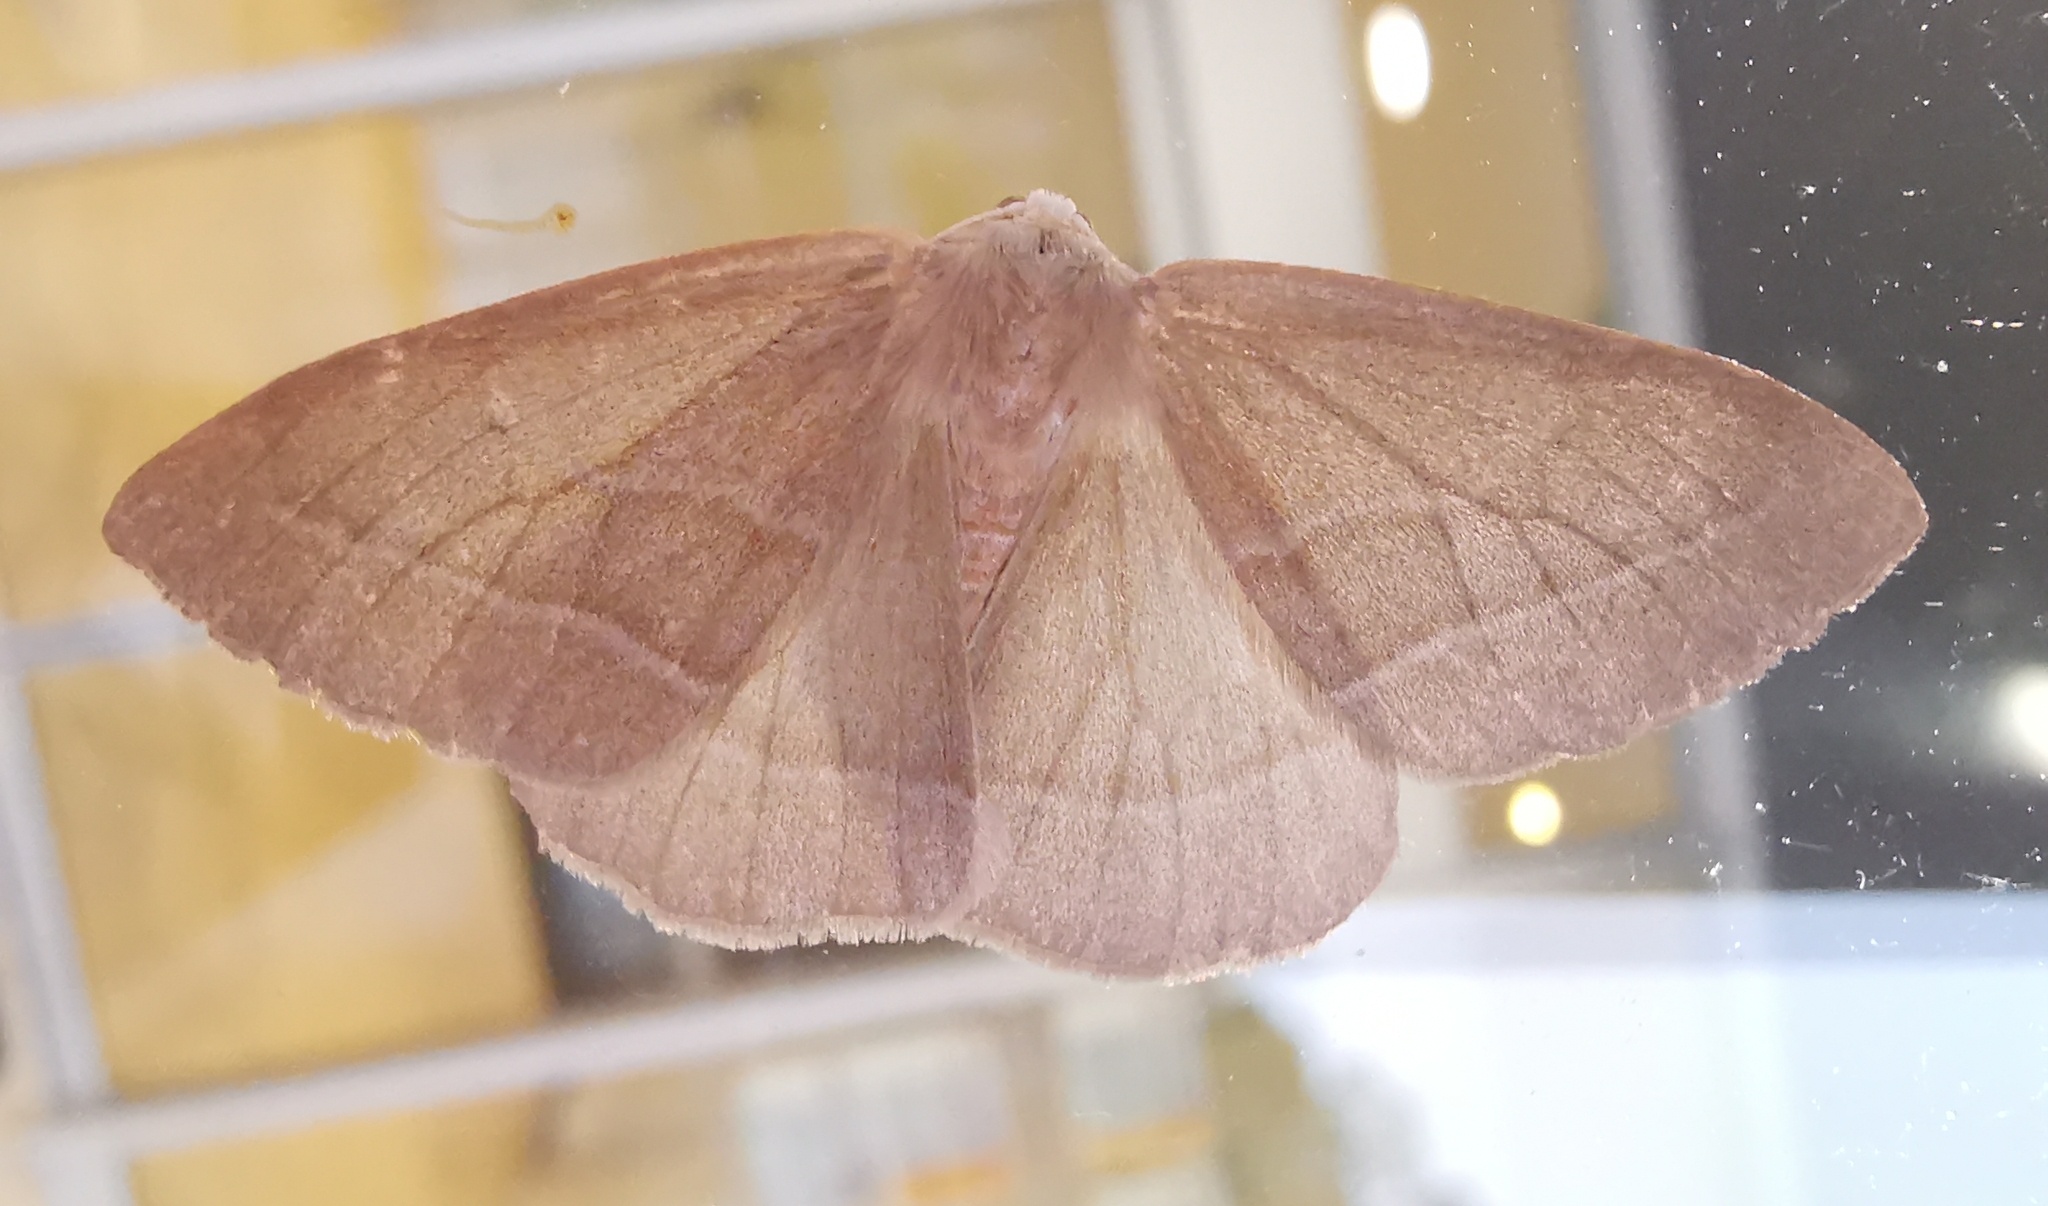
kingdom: Animalia
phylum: Arthropoda
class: Insecta
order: Lepidoptera
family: Geometridae
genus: Hylaea
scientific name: Hylaea fasciaria
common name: Barred red
